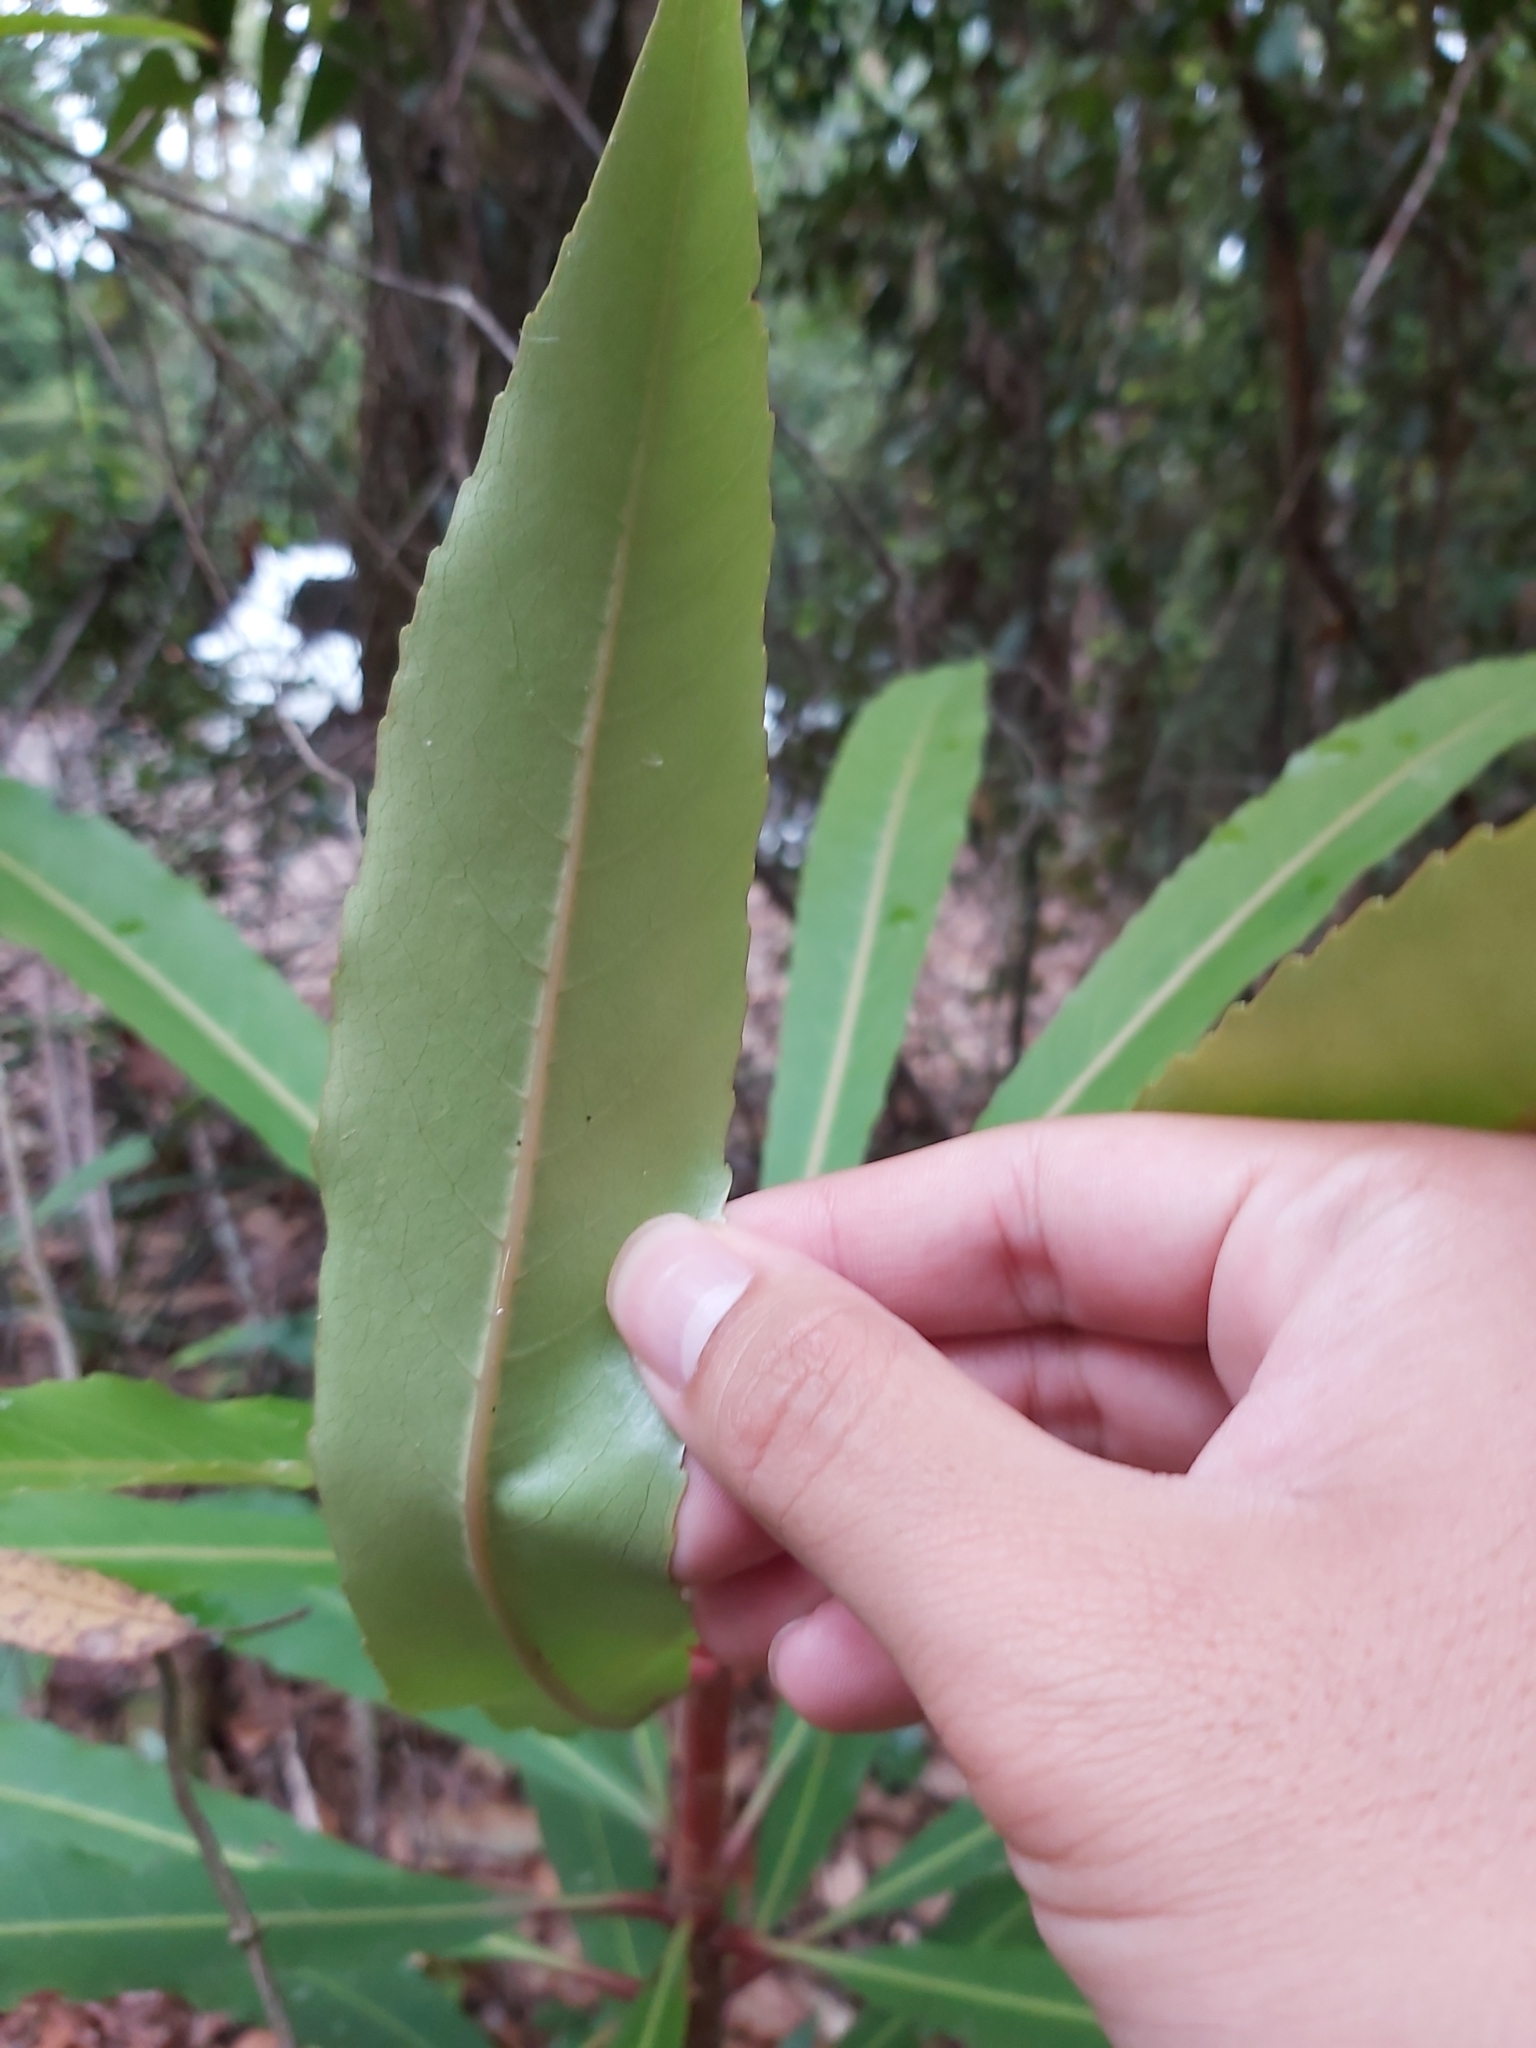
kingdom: Plantae
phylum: Tracheophyta
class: Magnoliopsida
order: Escalloniales
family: Escalloniaceae
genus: Anopterus
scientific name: Anopterus macleayanus
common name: Tasmanian-laurel
